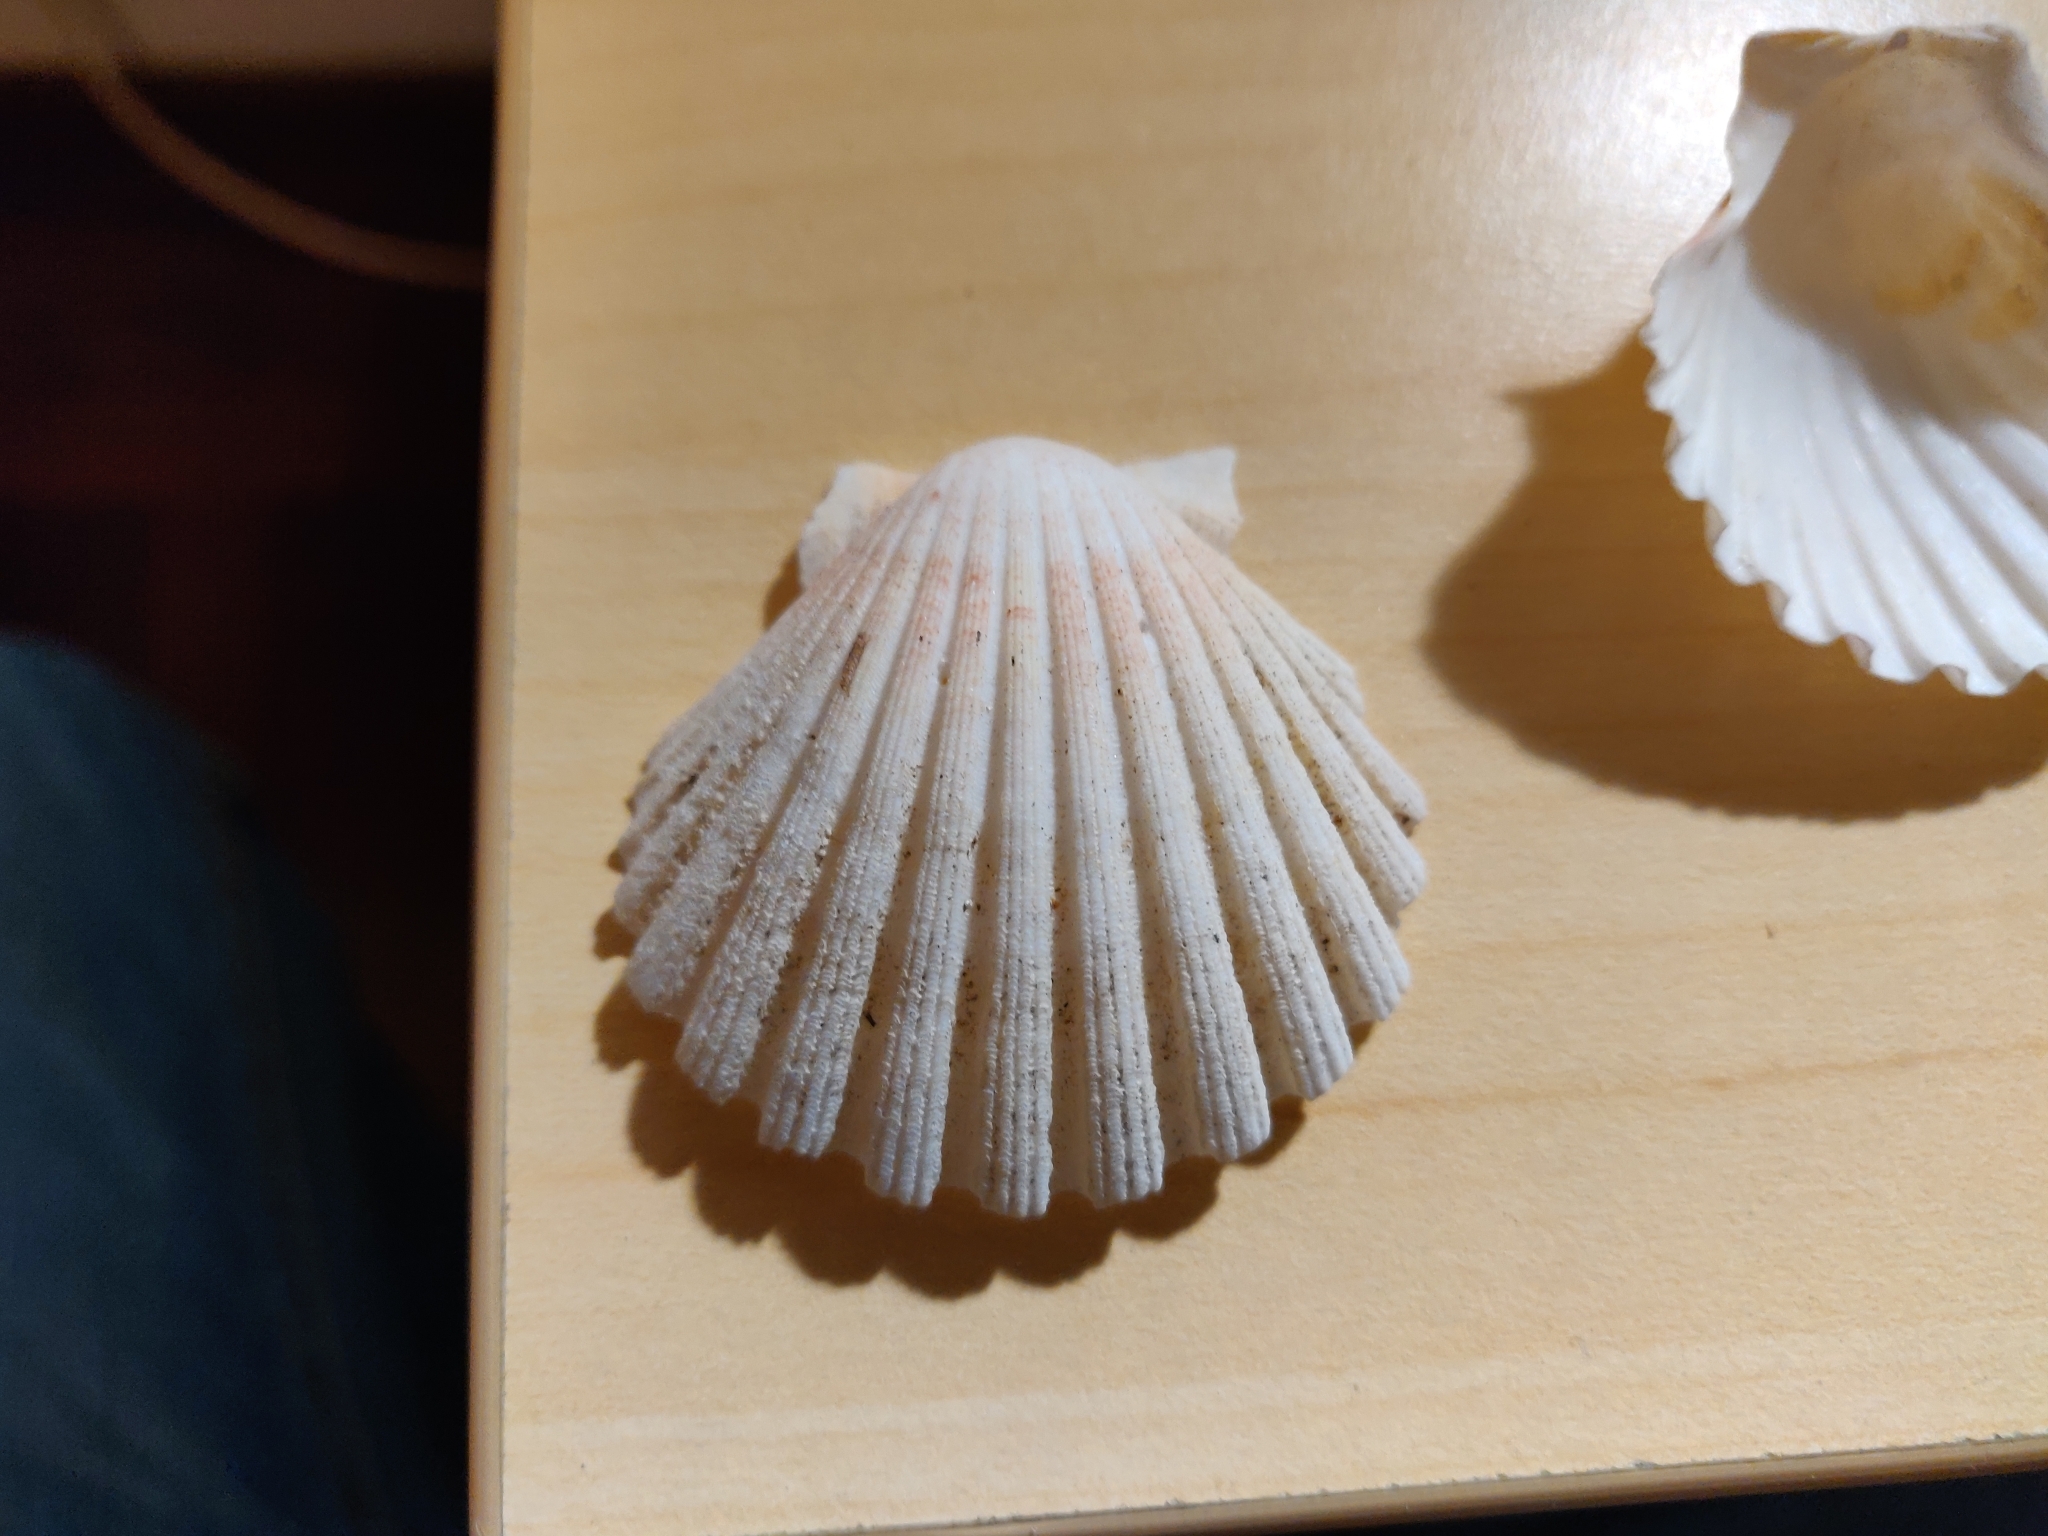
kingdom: Animalia
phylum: Mollusca
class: Bivalvia
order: Pectinida
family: Pectinidae
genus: Pecten
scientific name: Pecten jacobaeus
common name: St.james's scallop
